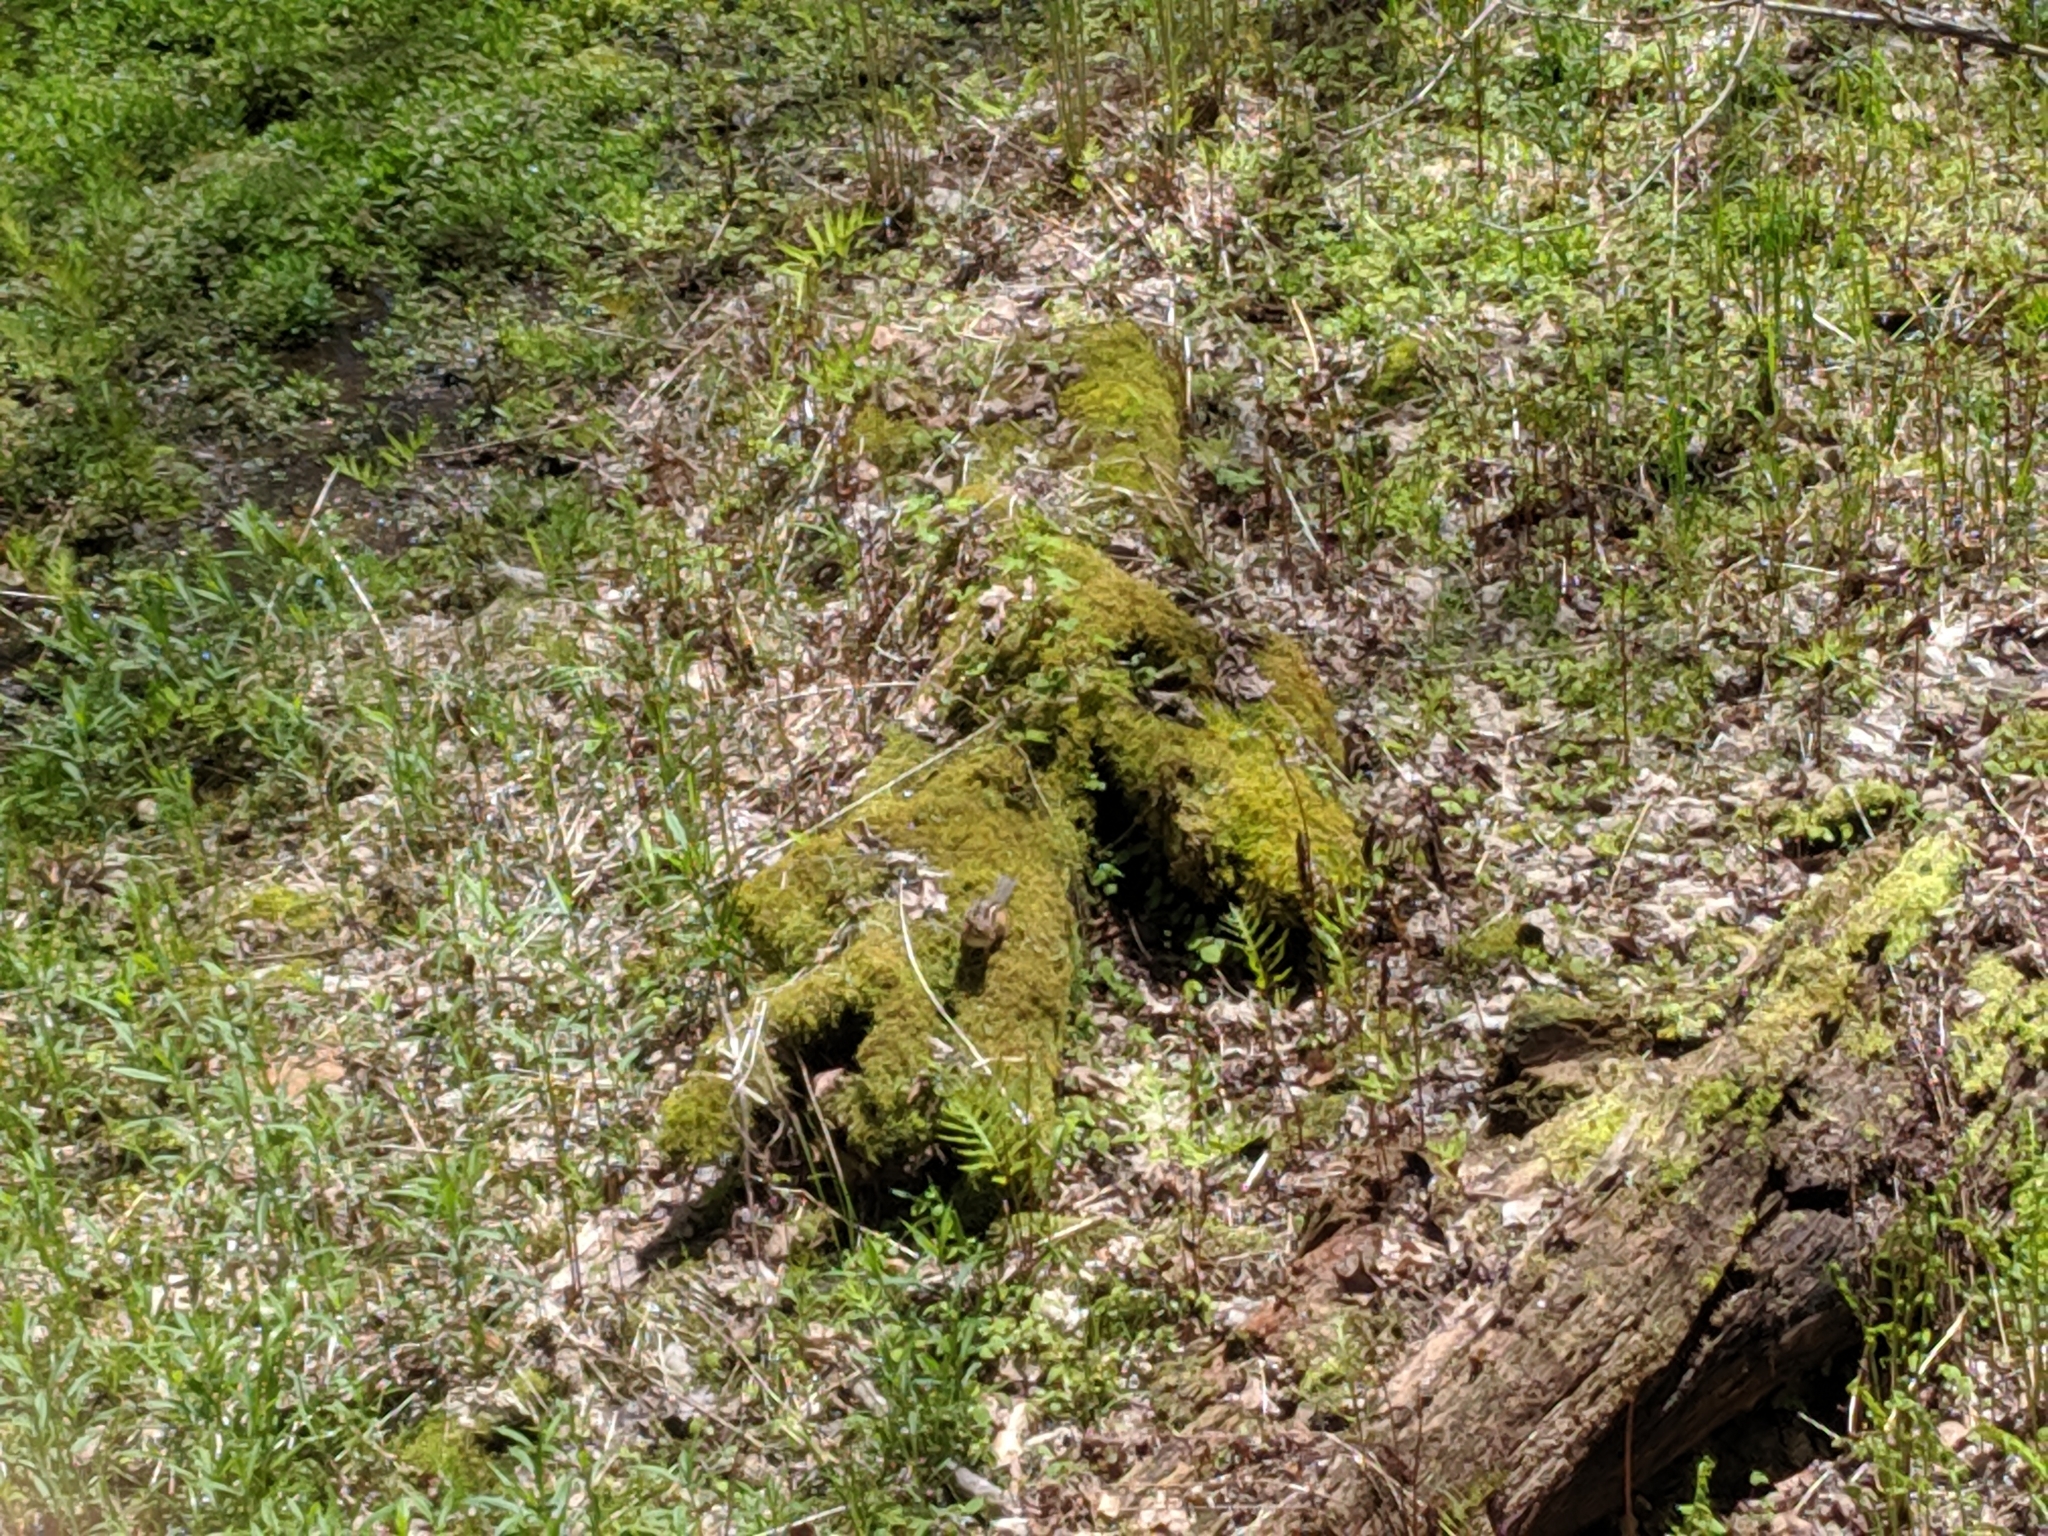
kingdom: Animalia
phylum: Chordata
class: Mammalia
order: Rodentia
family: Sciuridae
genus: Tamias
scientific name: Tamias striatus
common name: Eastern chipmunk
